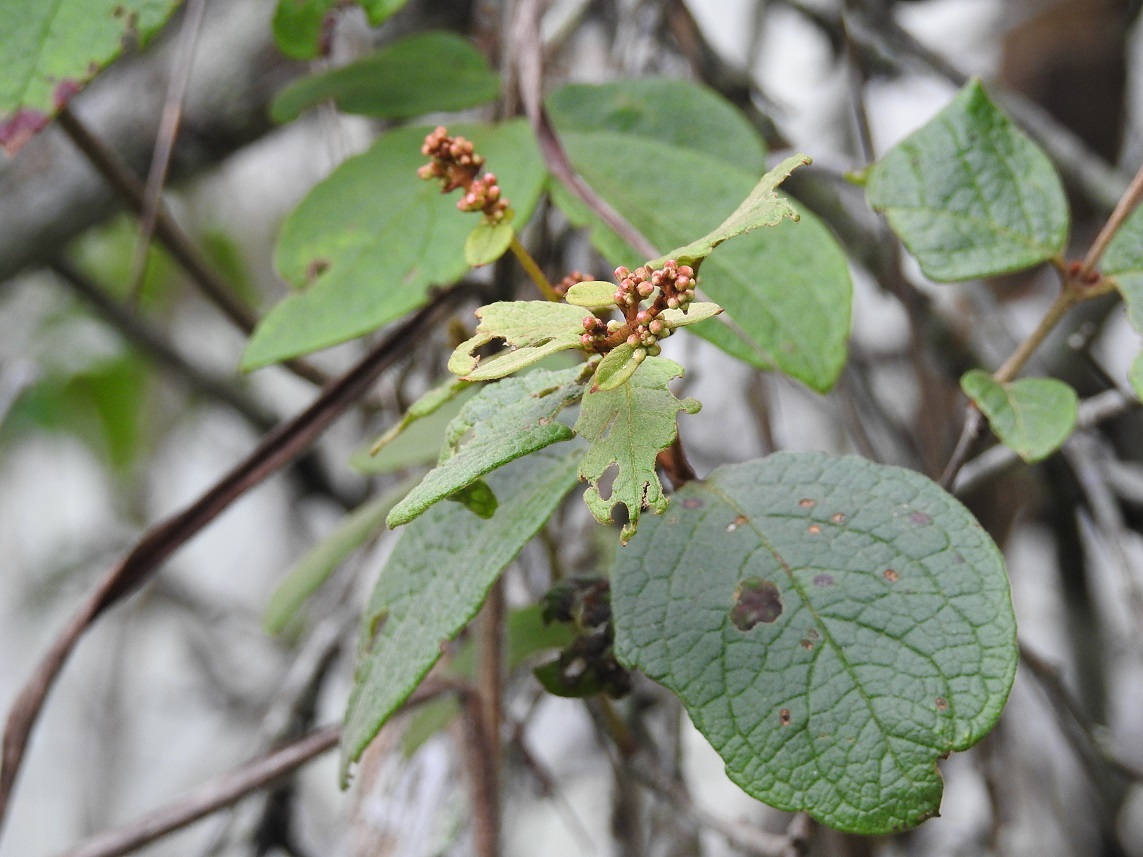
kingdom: Plantae
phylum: Tracheophyta
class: Magnoliopsida
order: Malpighiales
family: Malpighiaceae
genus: Heteropterys
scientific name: Heteropterys brachiata
